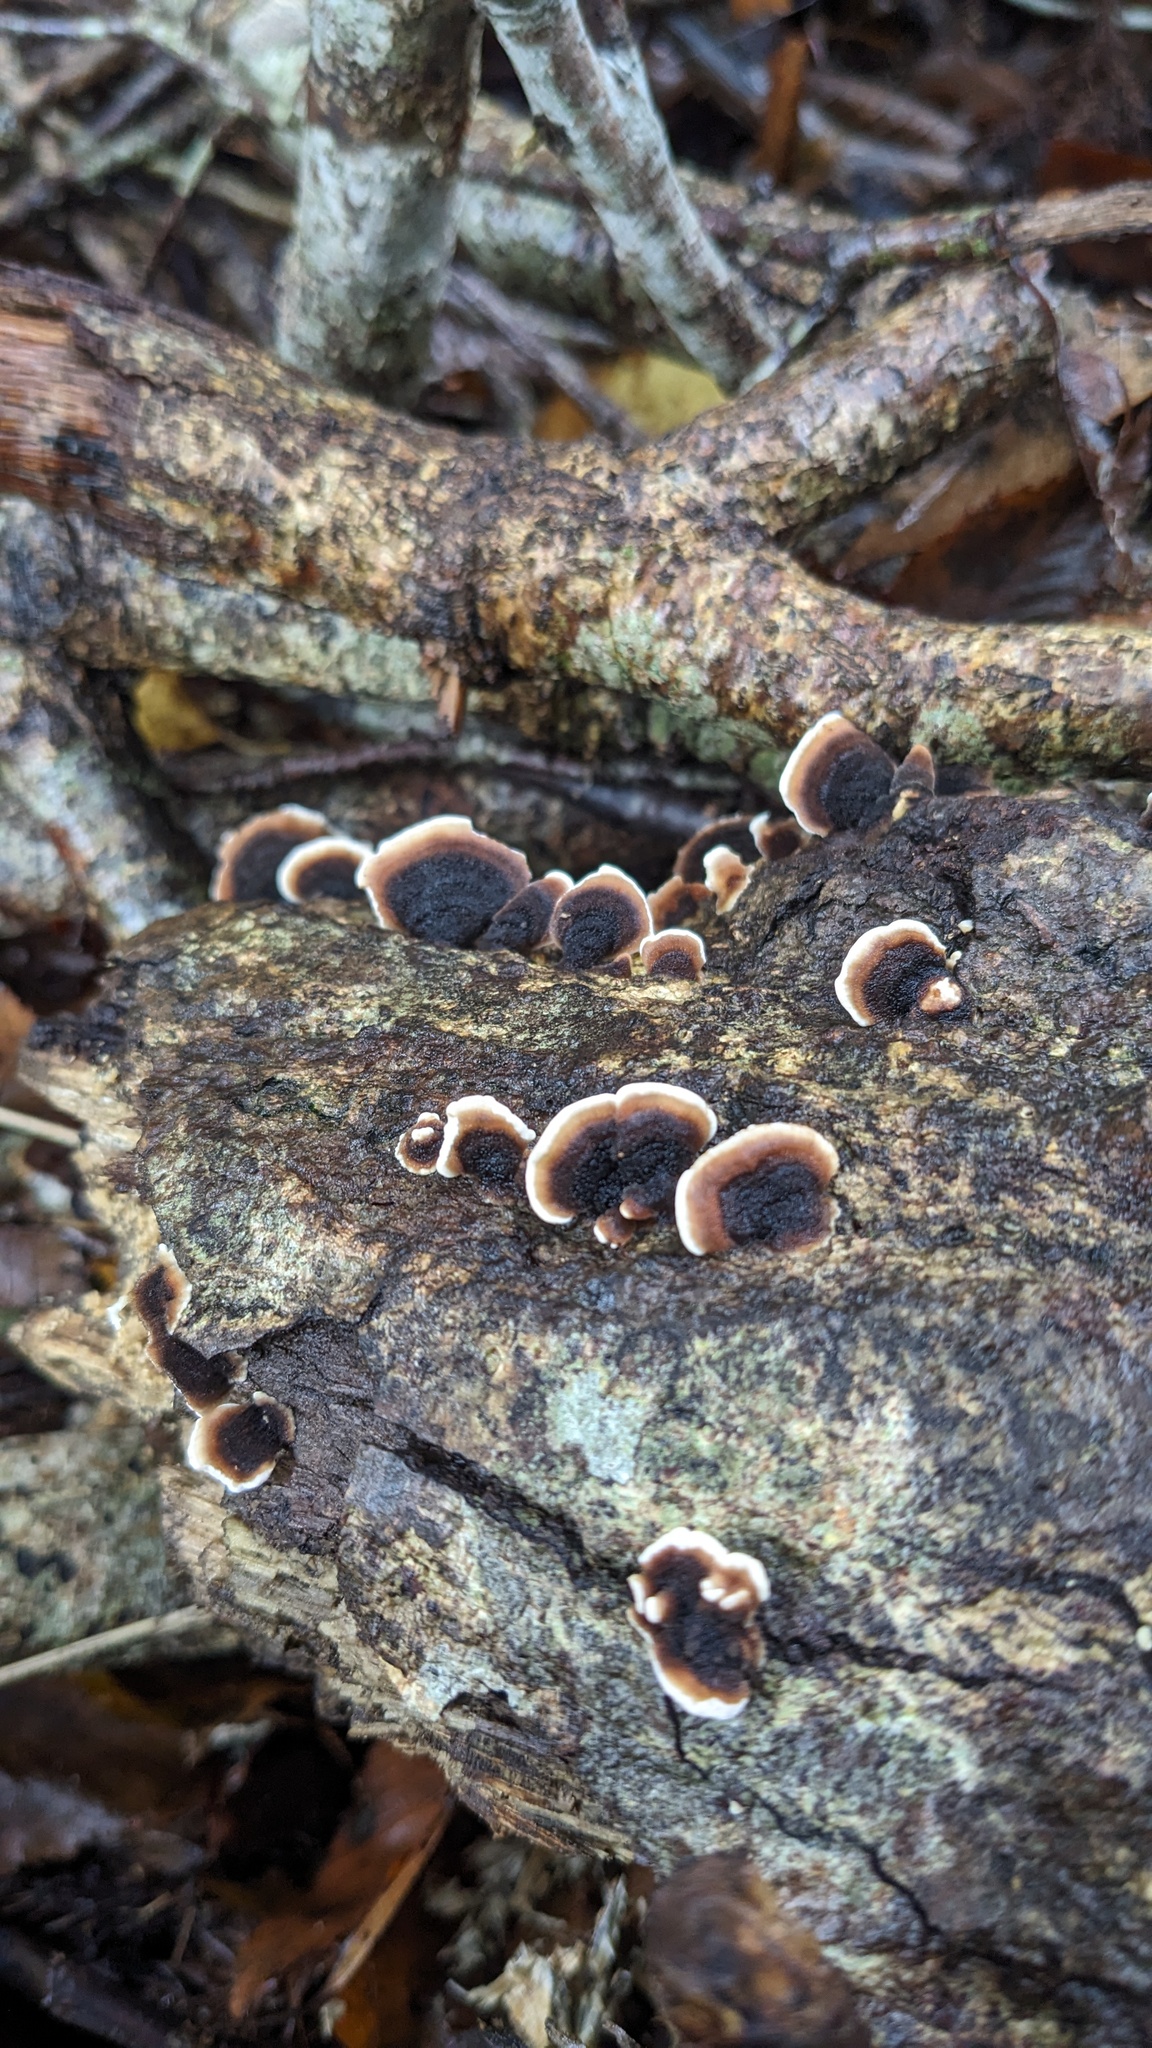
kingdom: Fungi
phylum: Basidiomycota
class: Agaricomycetes
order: Polyporales
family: Polyporaceae
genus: Trametes
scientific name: Trametes versicolor
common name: Turkeytail
